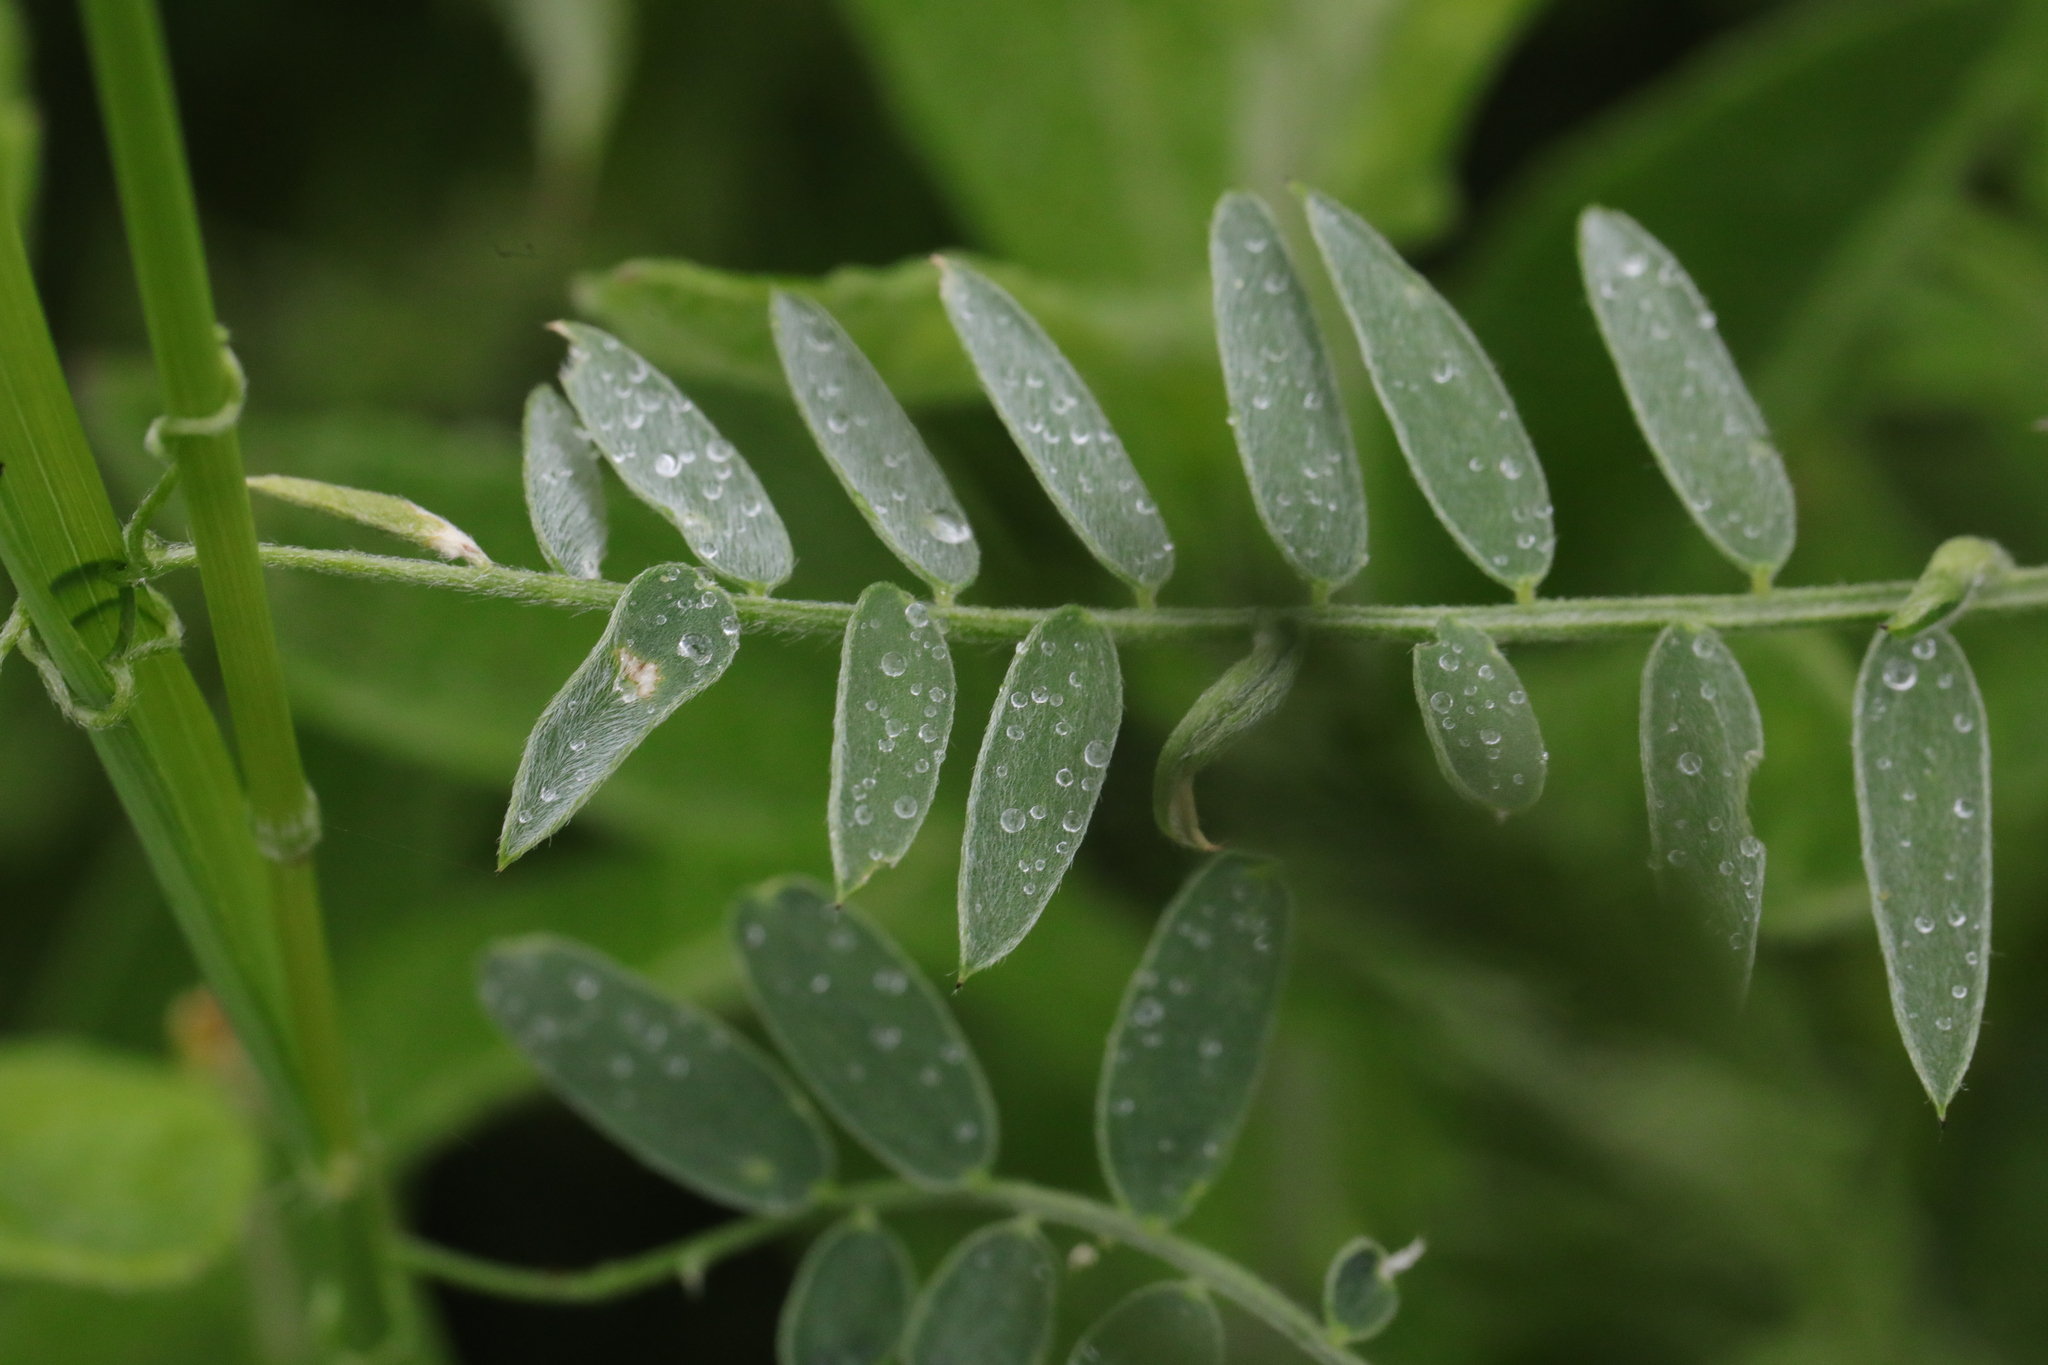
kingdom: Plantae
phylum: Tracheophyta
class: Magnoliopsida
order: Fabales
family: Fabaceae
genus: Vicia
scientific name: Vicia cracca
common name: Bird vetch
